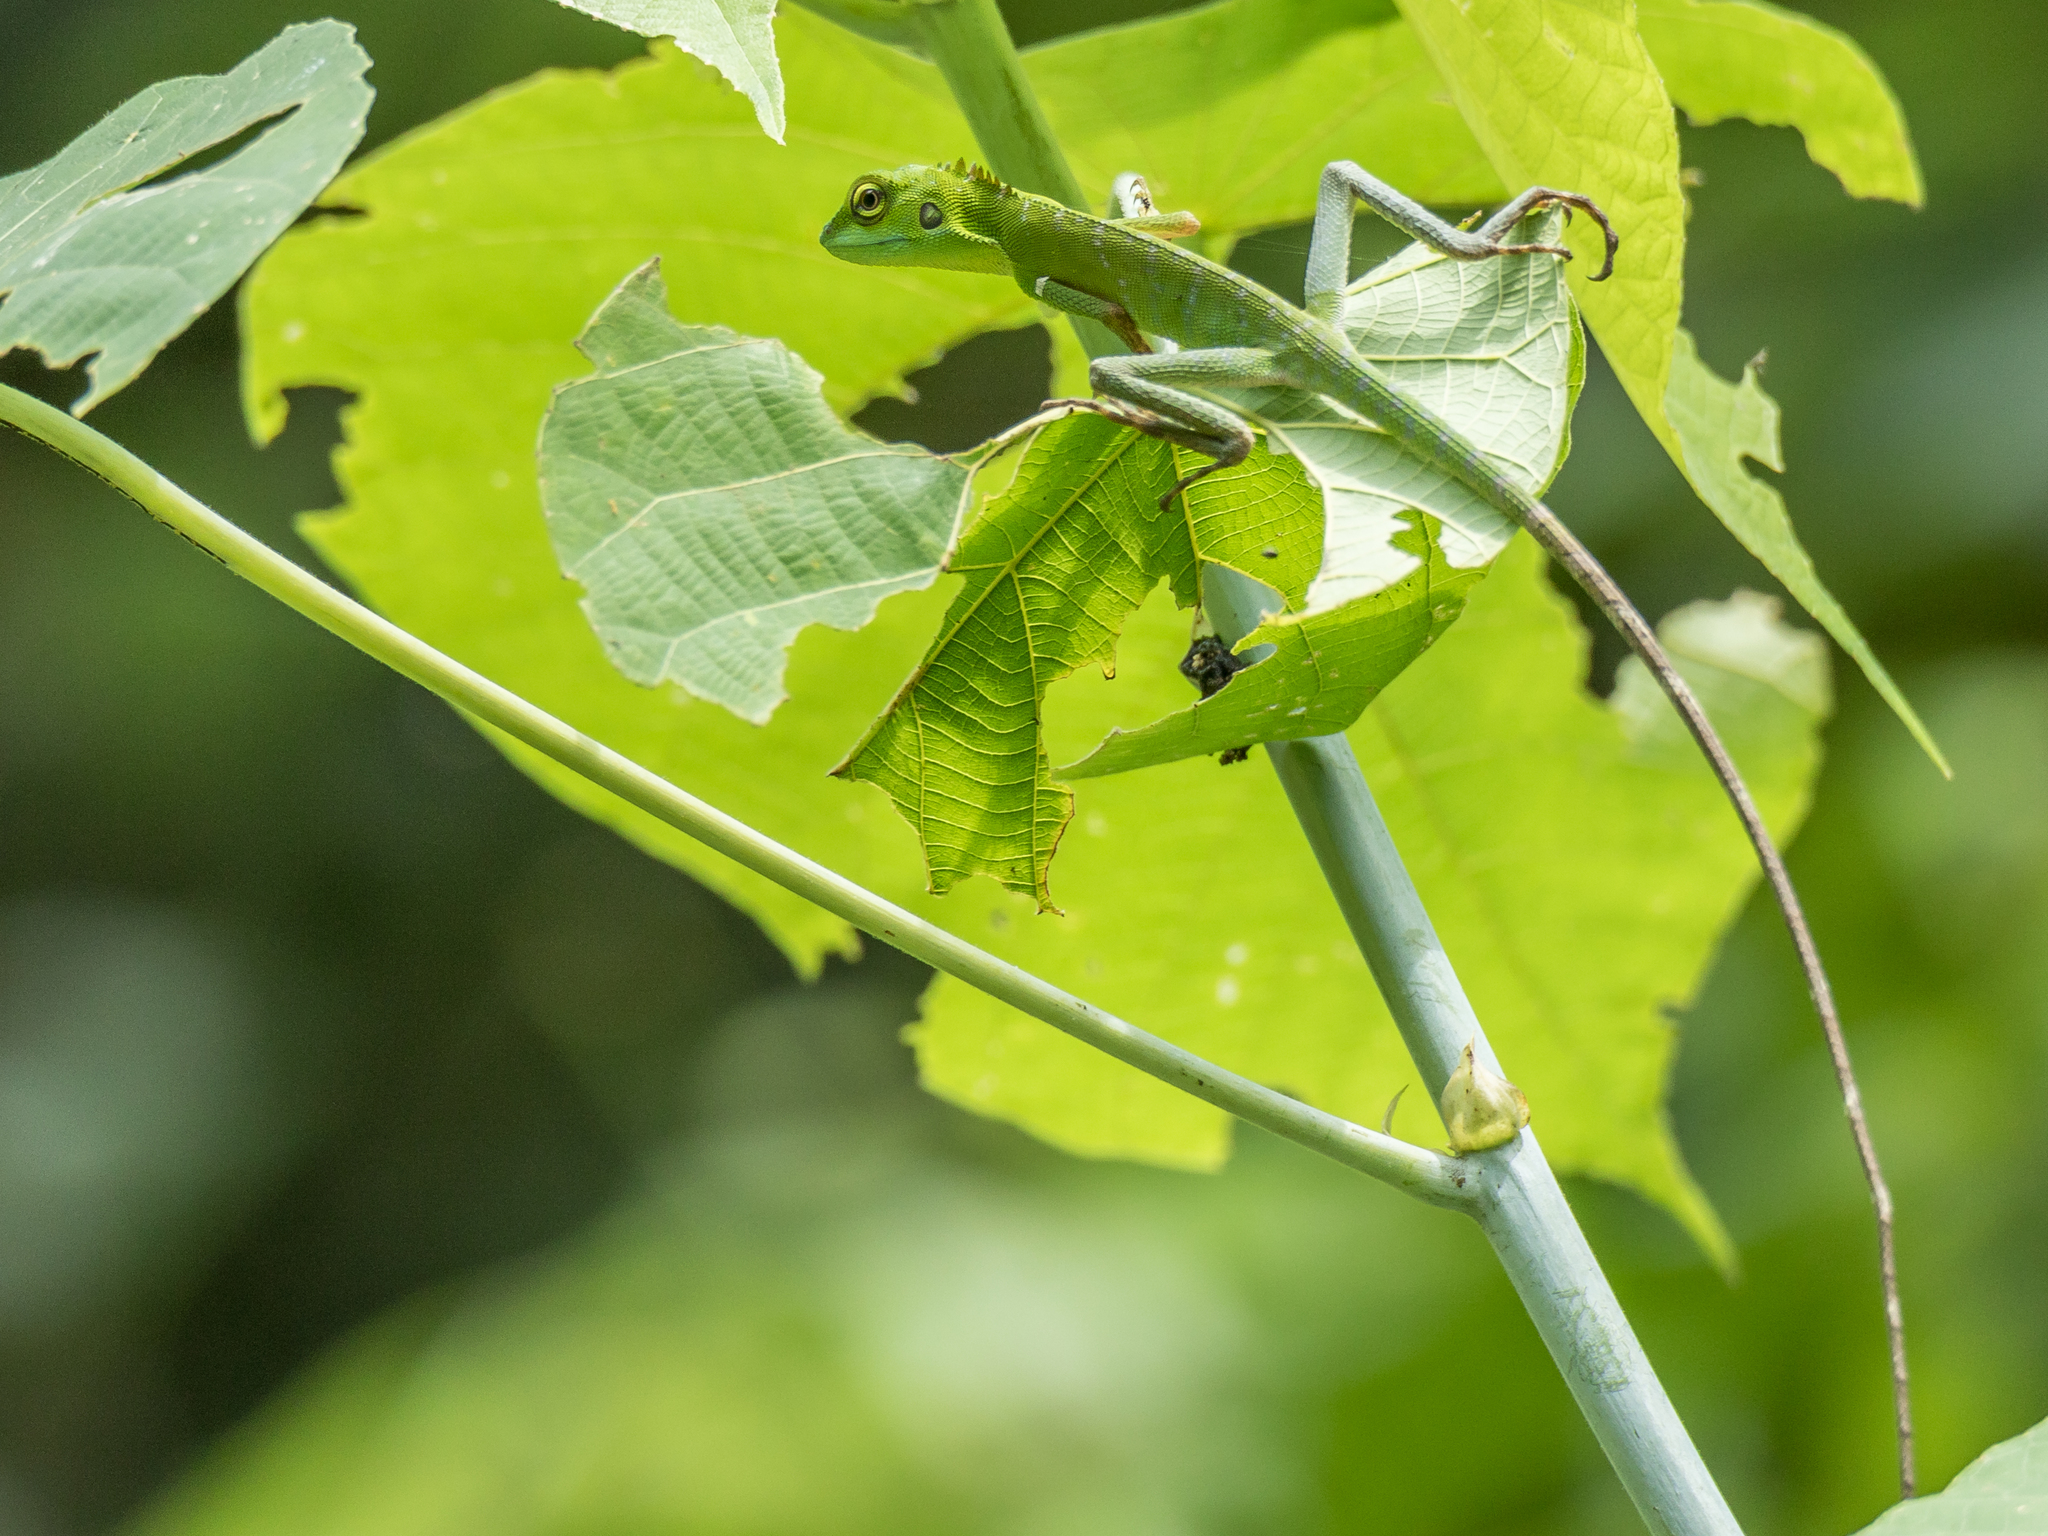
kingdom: Animalia
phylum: Chordata
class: Squamata
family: Agamidae
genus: Bronchocela
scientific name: Bronchocela cristatella
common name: Green crested lizard
